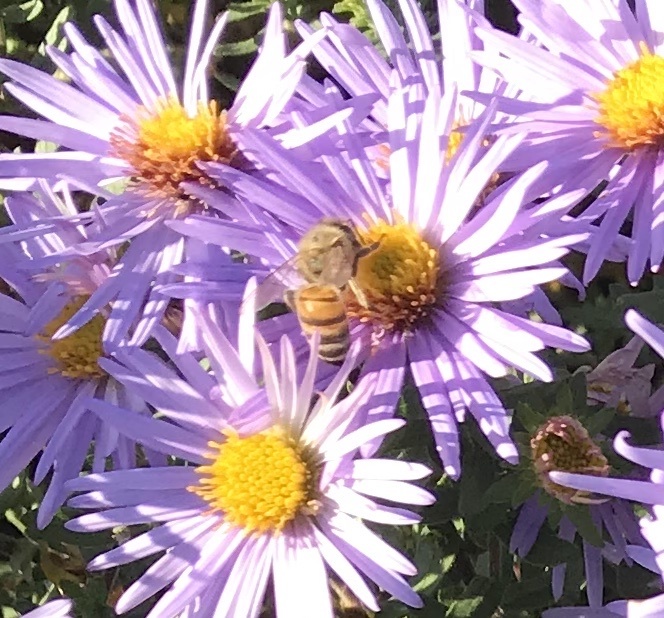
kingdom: Animalia
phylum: Arthropoda
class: Insecta
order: Hymenoptera
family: Apidae
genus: Apis
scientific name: Apis mellifera
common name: Honey bee
